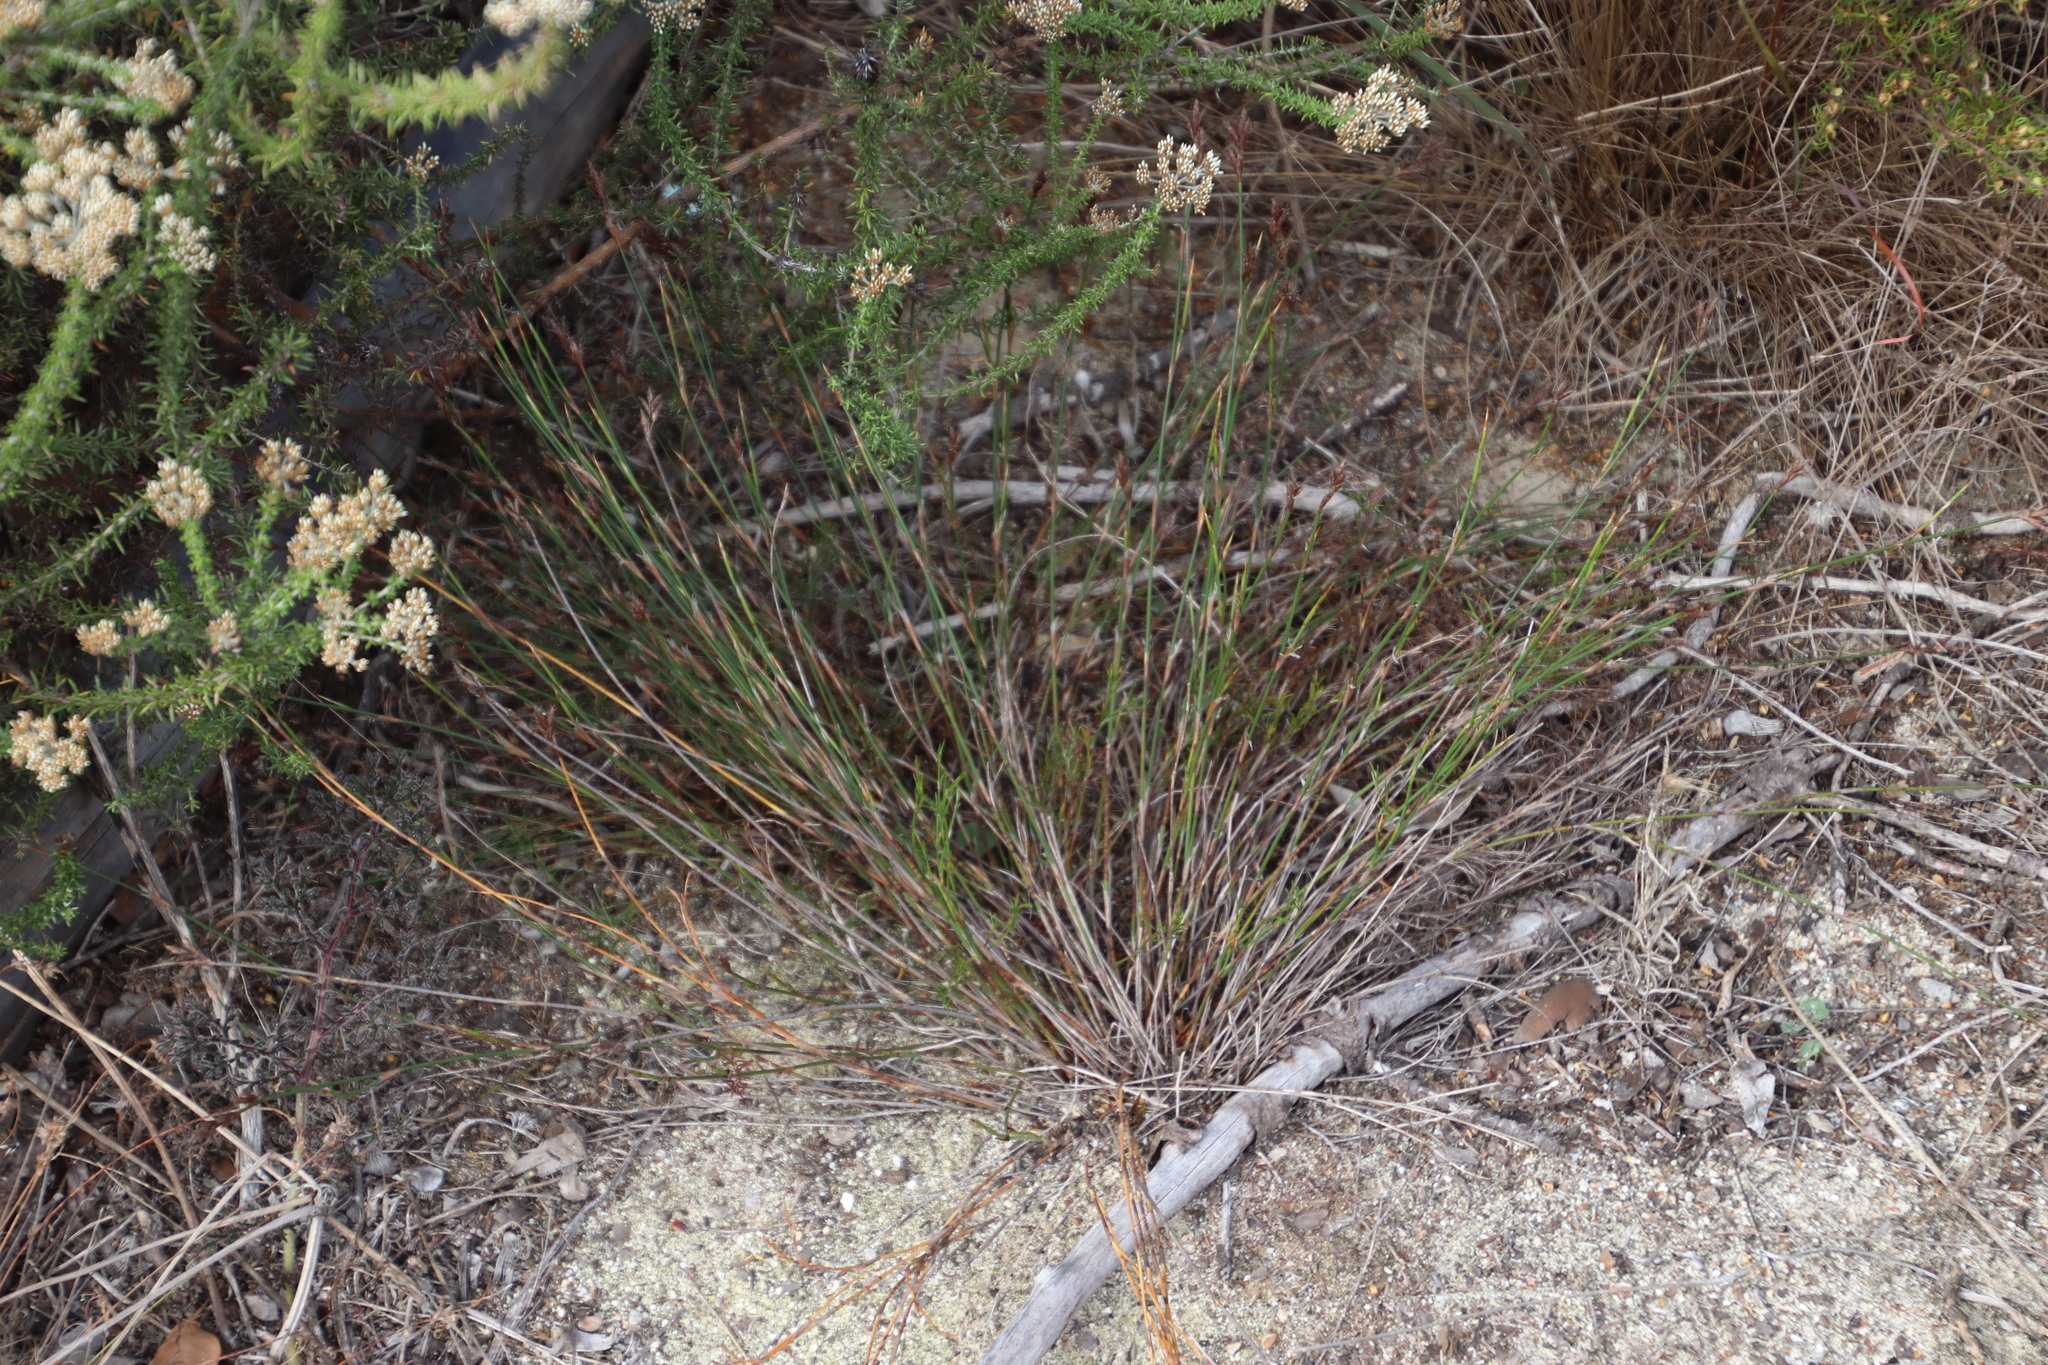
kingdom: Plantae
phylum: Tracheophyta
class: Liliopsida
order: Poales
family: Restionaceae
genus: Restio
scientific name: Restio capensis
